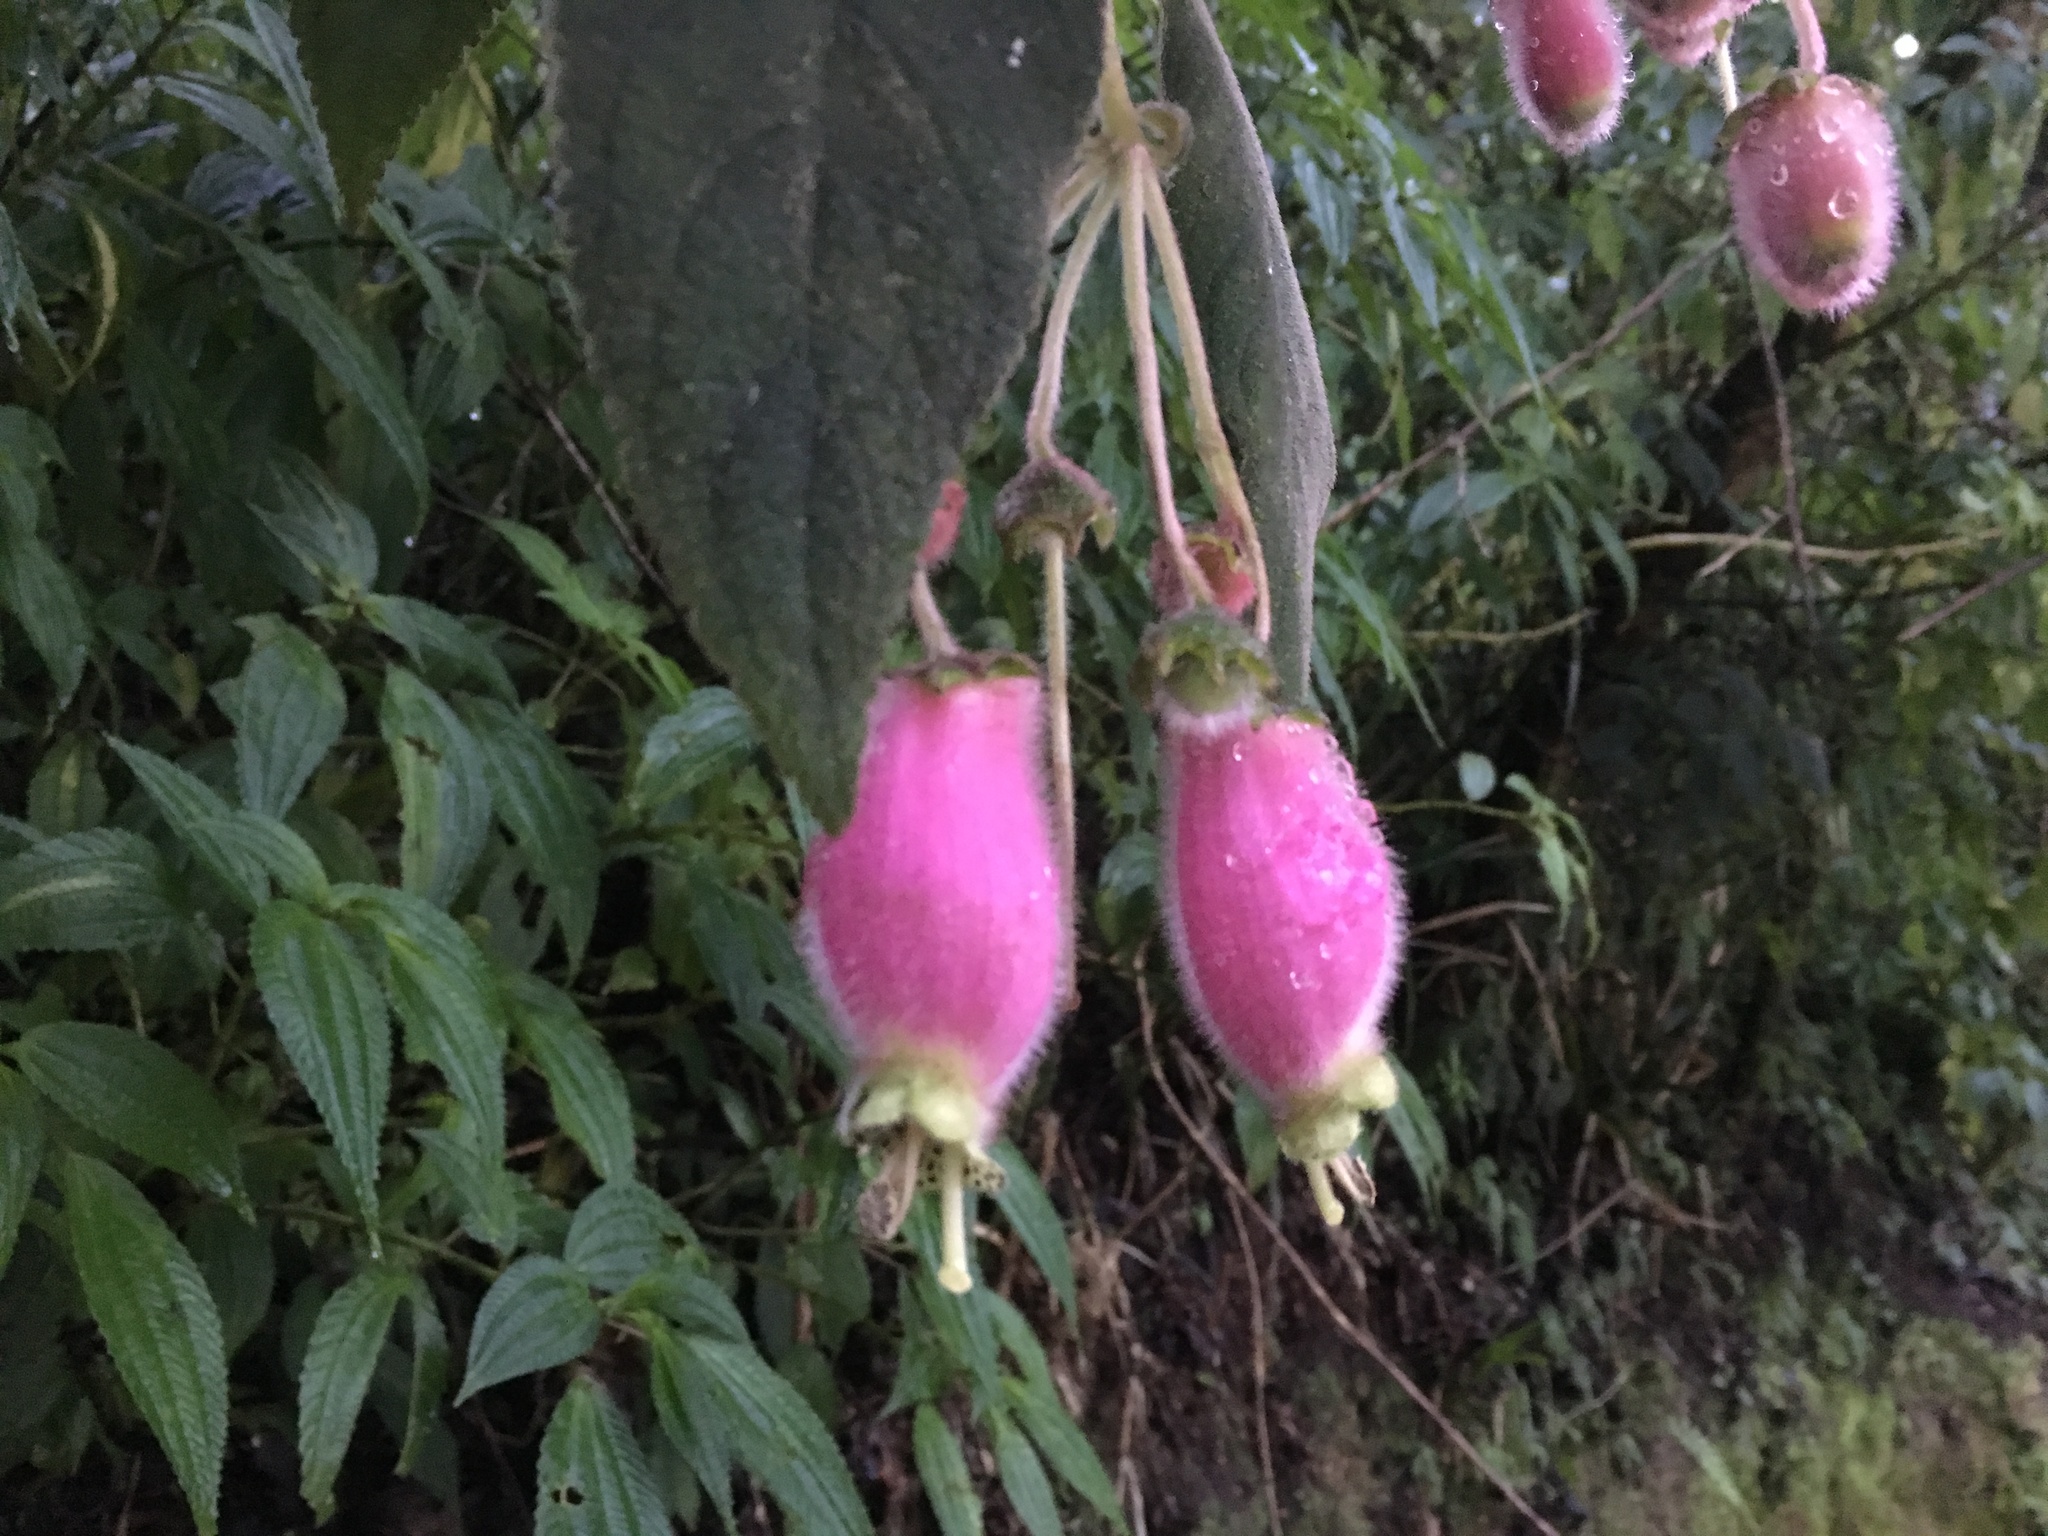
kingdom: Plantae
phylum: Tracheophyta
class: Magnoliopsida
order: Lamiales
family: Gesneriaceae
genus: Kohleria
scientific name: Kohleria affinis
